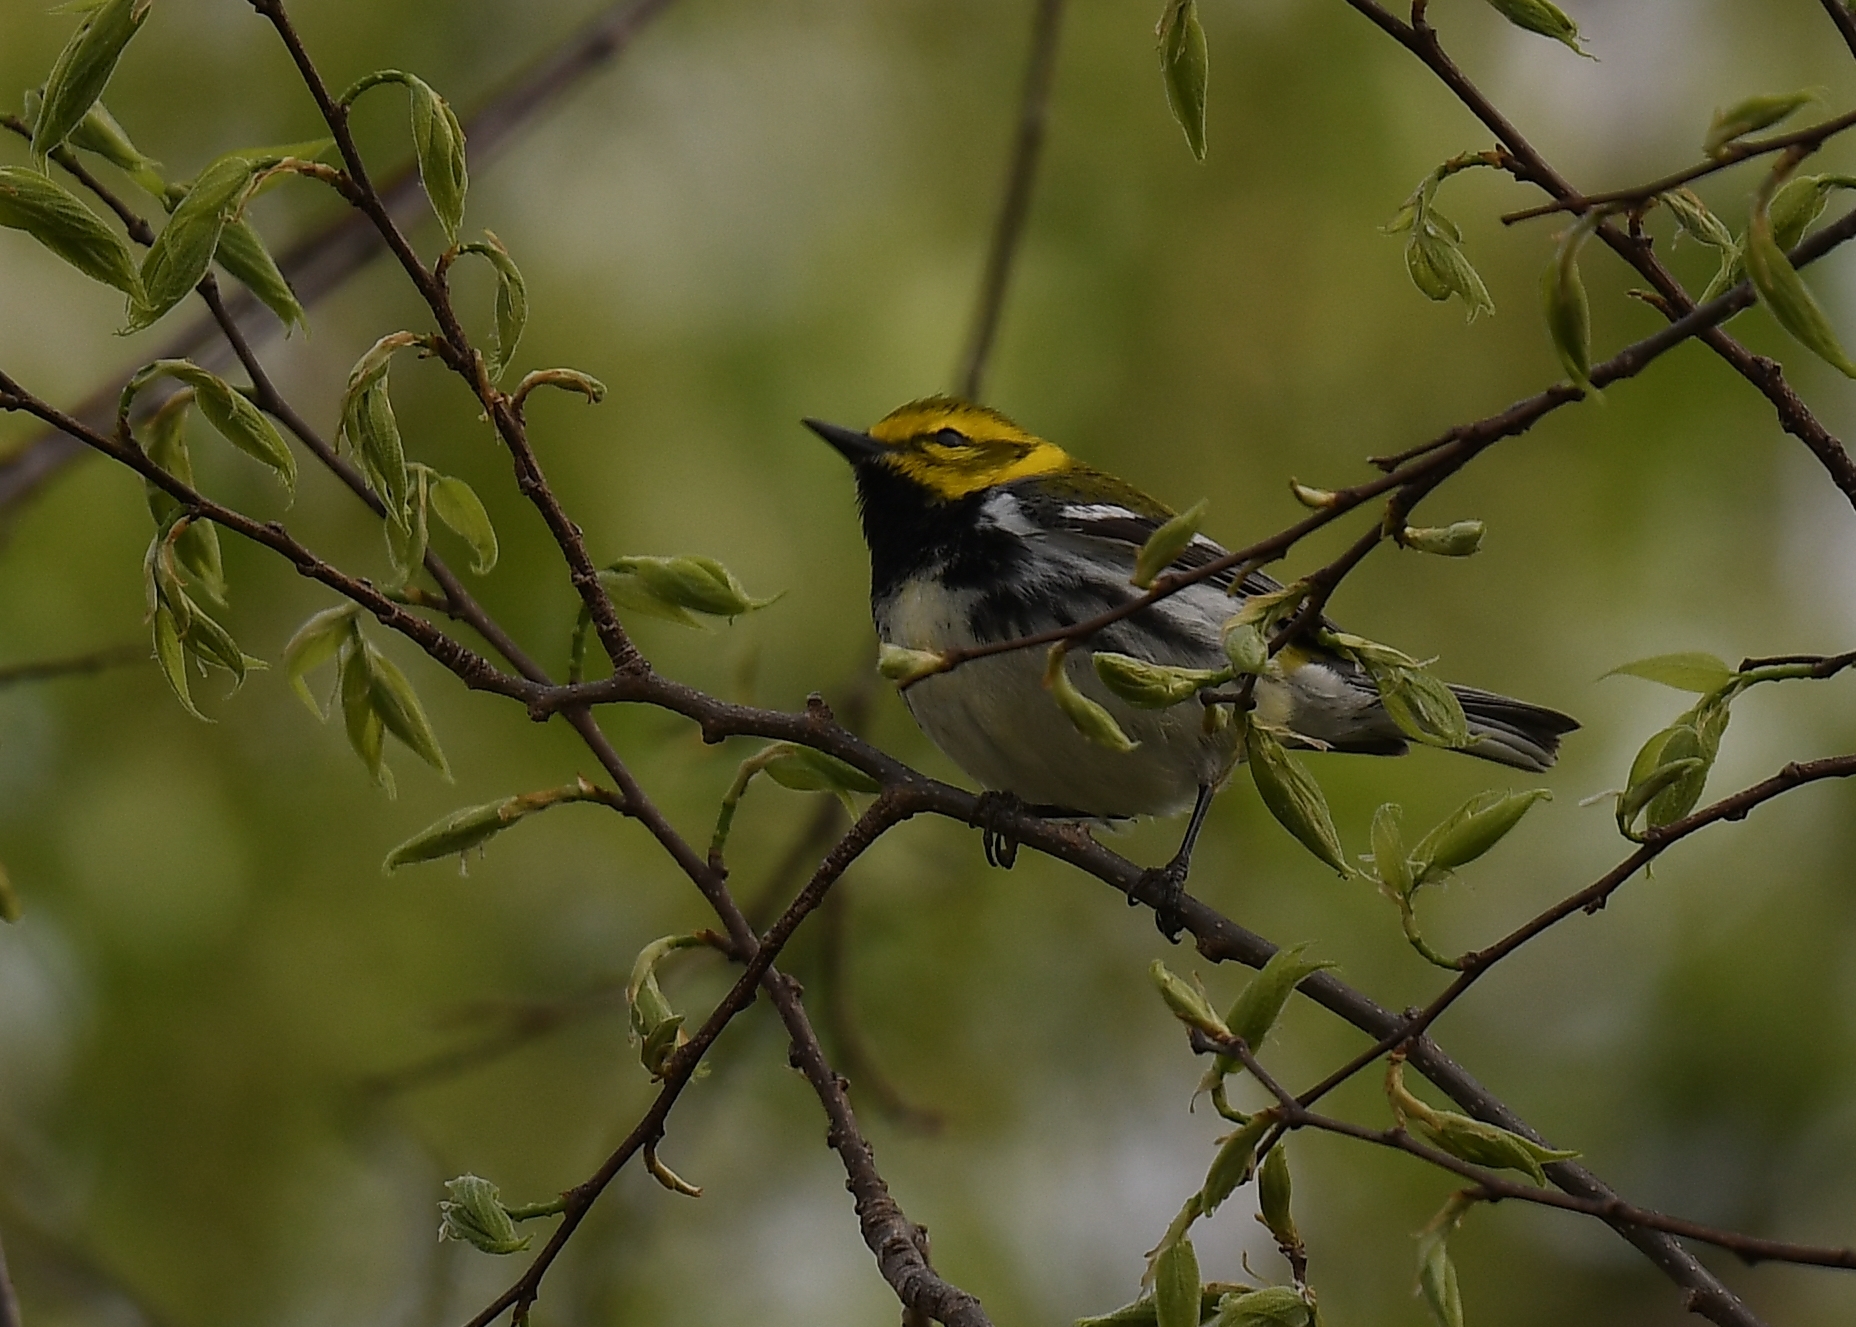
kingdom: Animalia
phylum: Chordata
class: Aves
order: Passeriformes
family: Parulidae
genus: Setophaga
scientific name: Setophaga virens
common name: Black-throated green warbler
